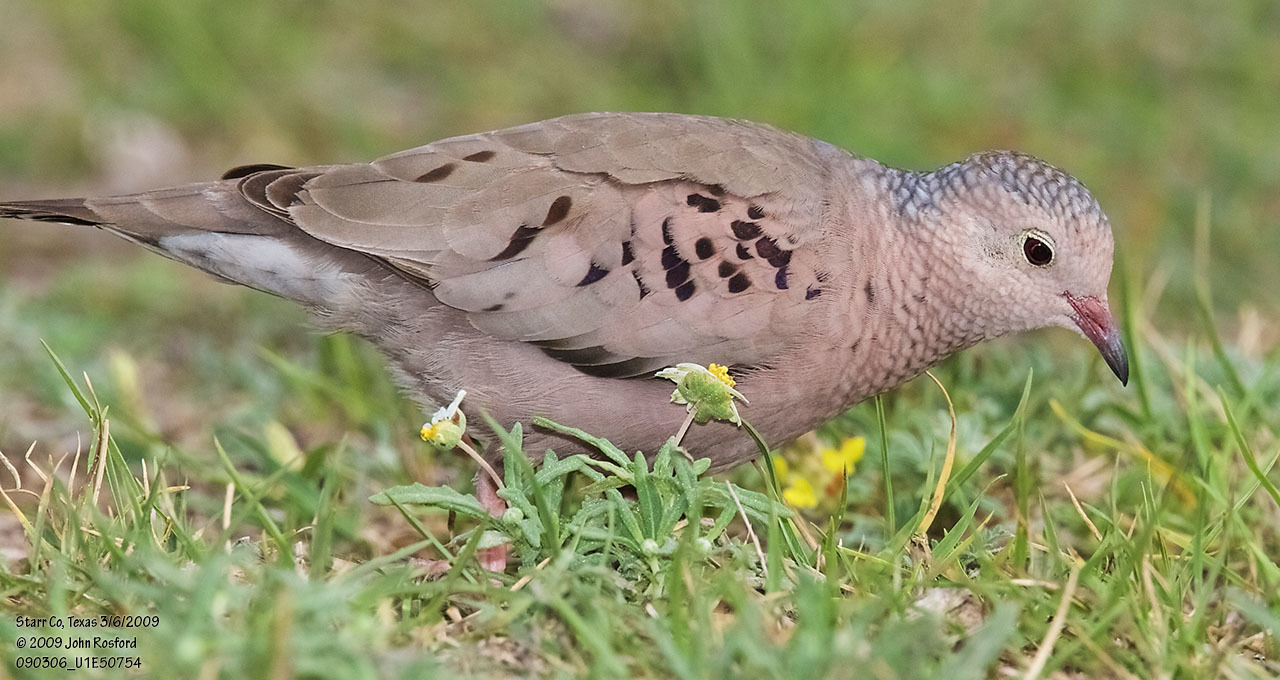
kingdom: Animalia
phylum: Chordata
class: Aves
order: Columbiformes
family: Columbidae
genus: Columbina
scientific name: Columbina passerina
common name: Common ground-dove
